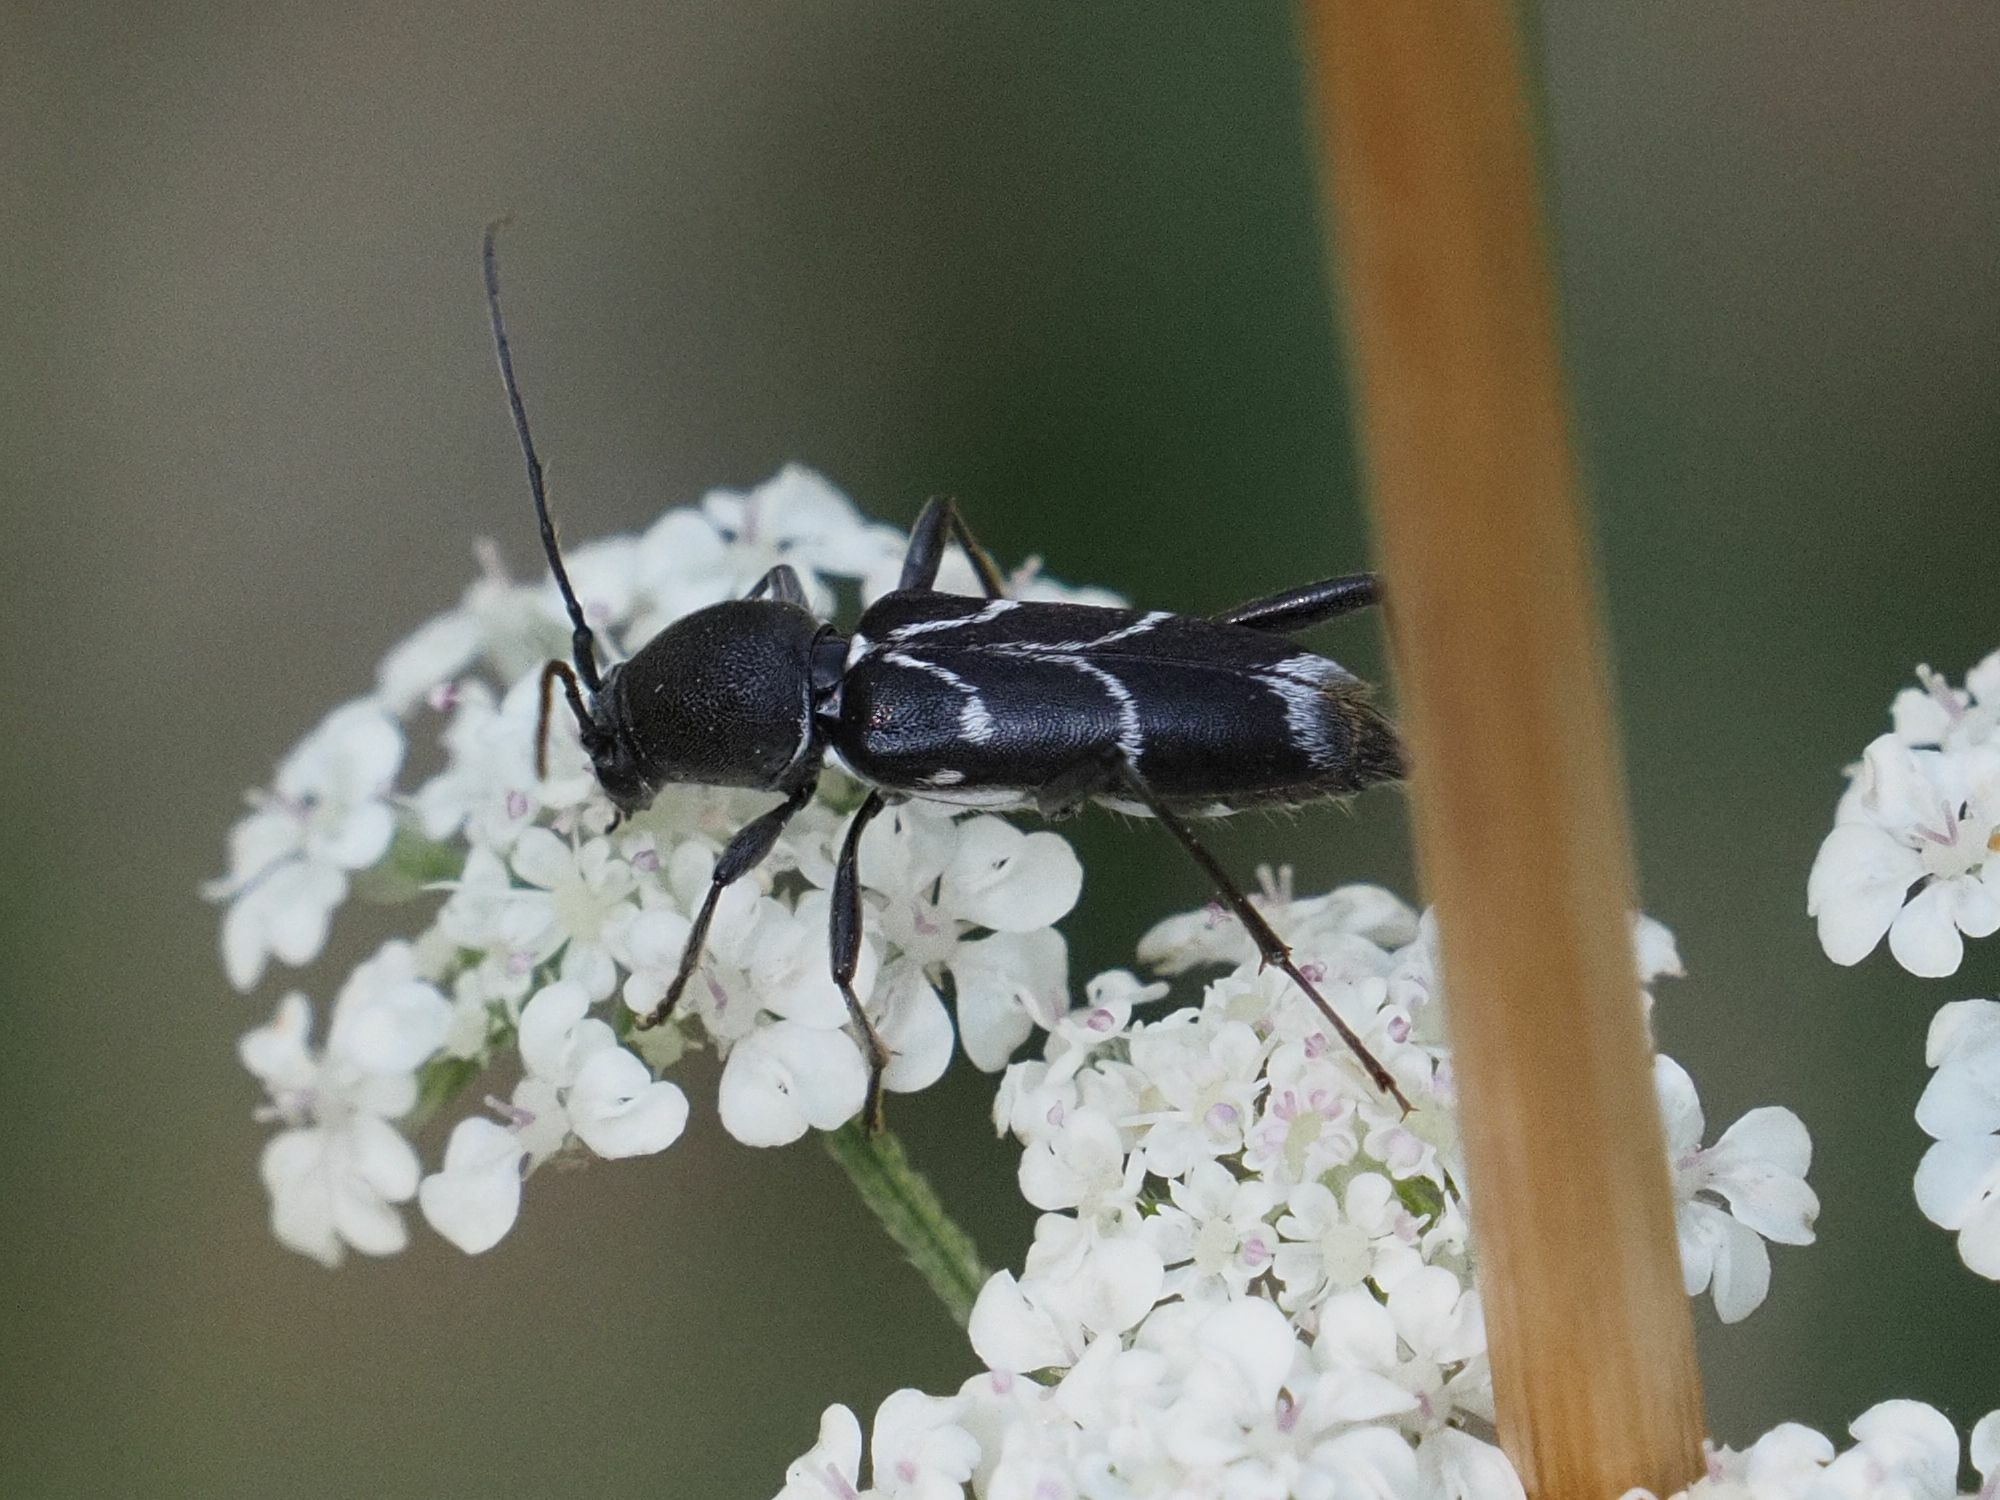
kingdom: Animalia
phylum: Arthropoda
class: Insecta
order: Coleoptera
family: Cerambycidae
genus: Chlorophorus
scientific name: Chlorophorus sartor
